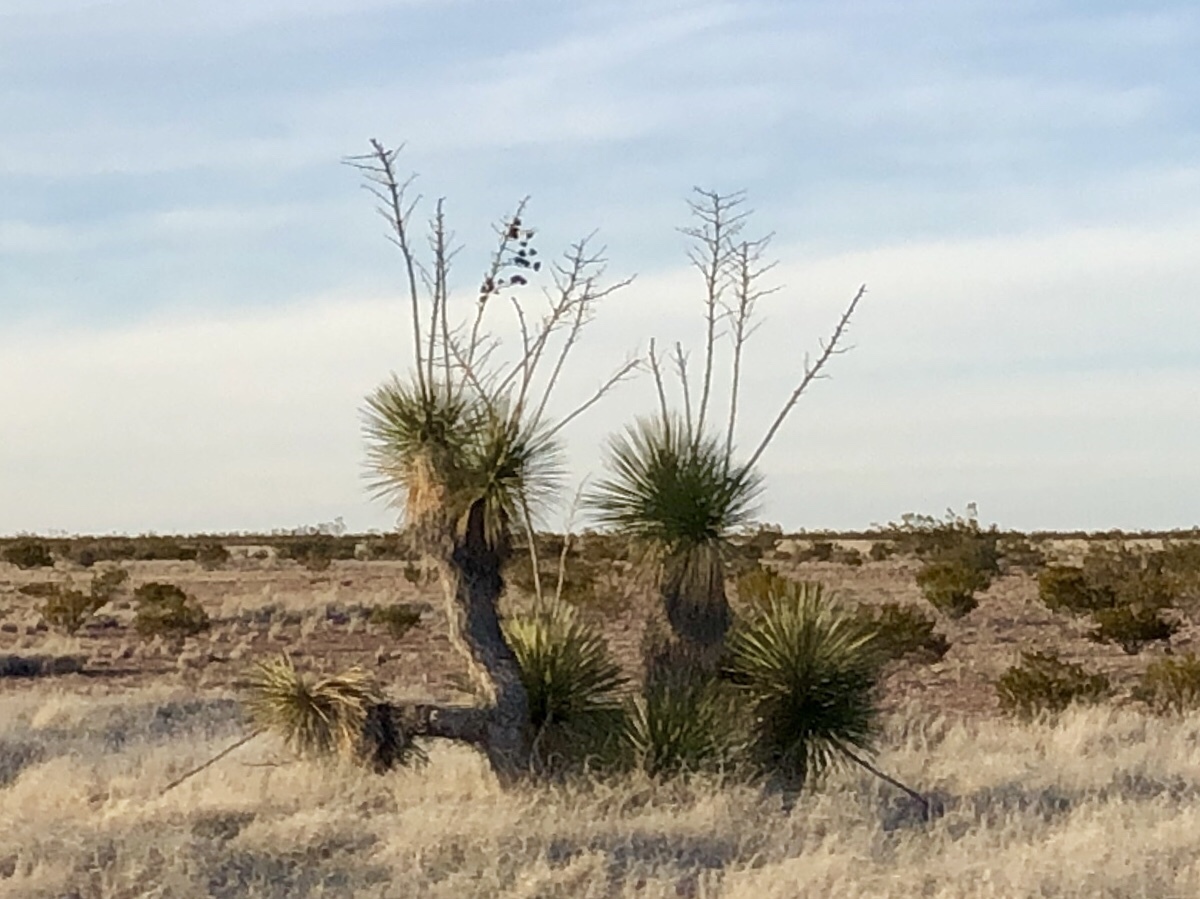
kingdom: Plantae
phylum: Tracheophyta
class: Liliopsida
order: Asparagales
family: Asparagaceae
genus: Yucca
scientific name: Yucca elata
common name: Palmella
